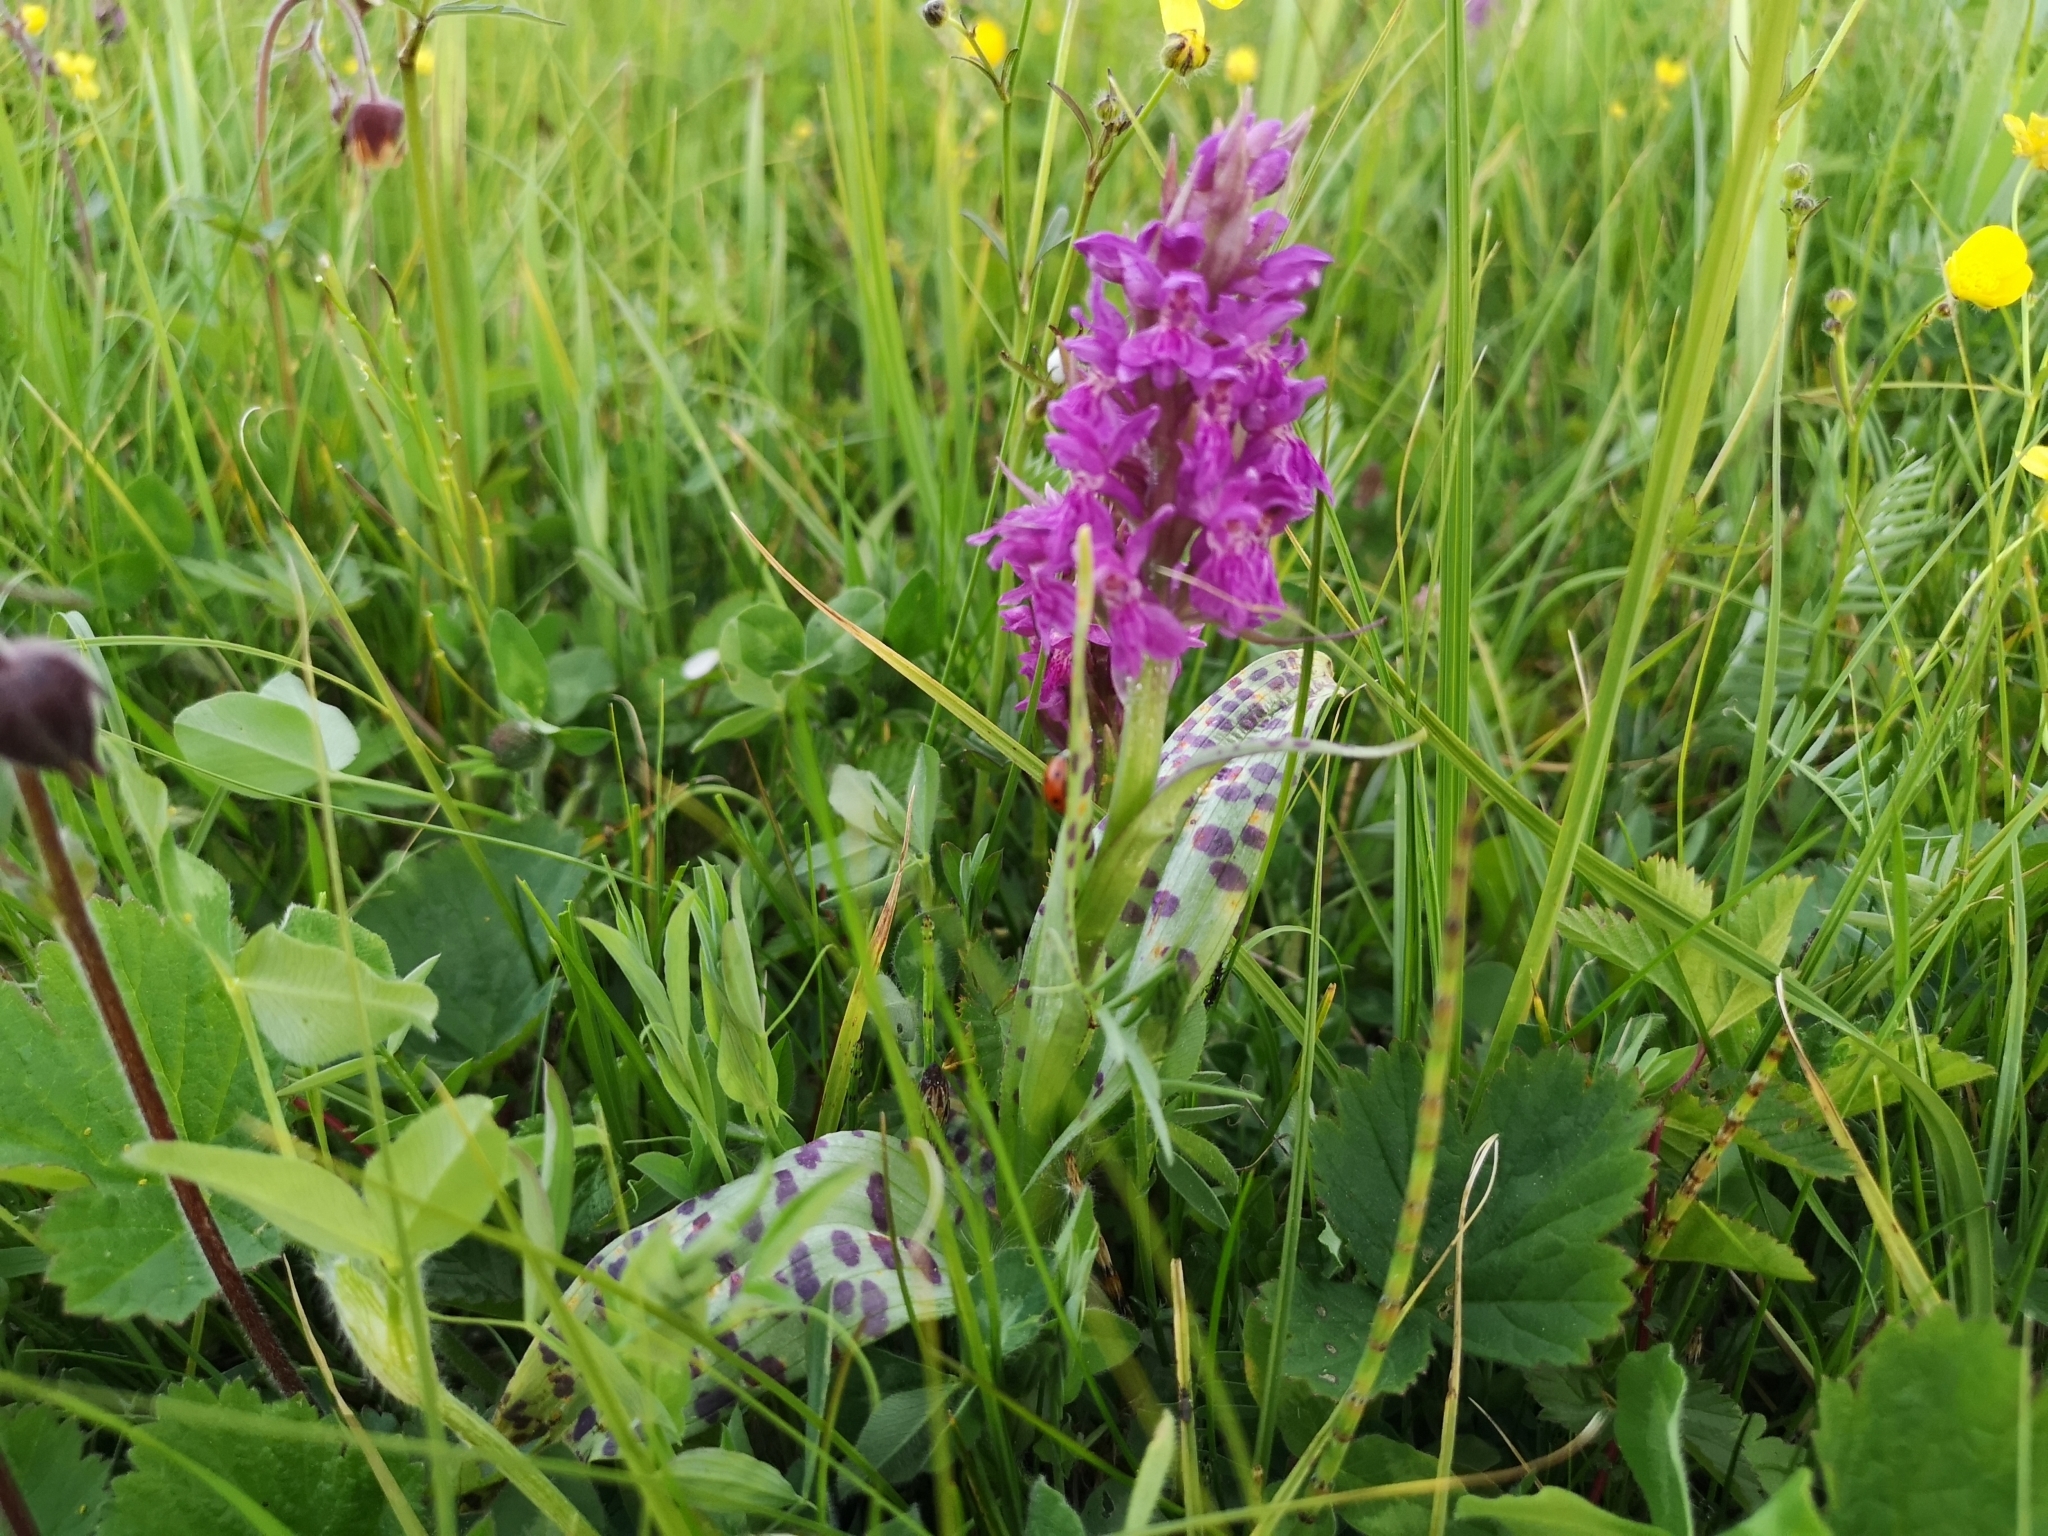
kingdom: Plantae
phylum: Tracheophyta
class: Liliopsida
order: Asparagales
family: Orchidaceae
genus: Dactylorhiza
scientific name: Dactylorhiza majalis
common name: Marsh orchid
